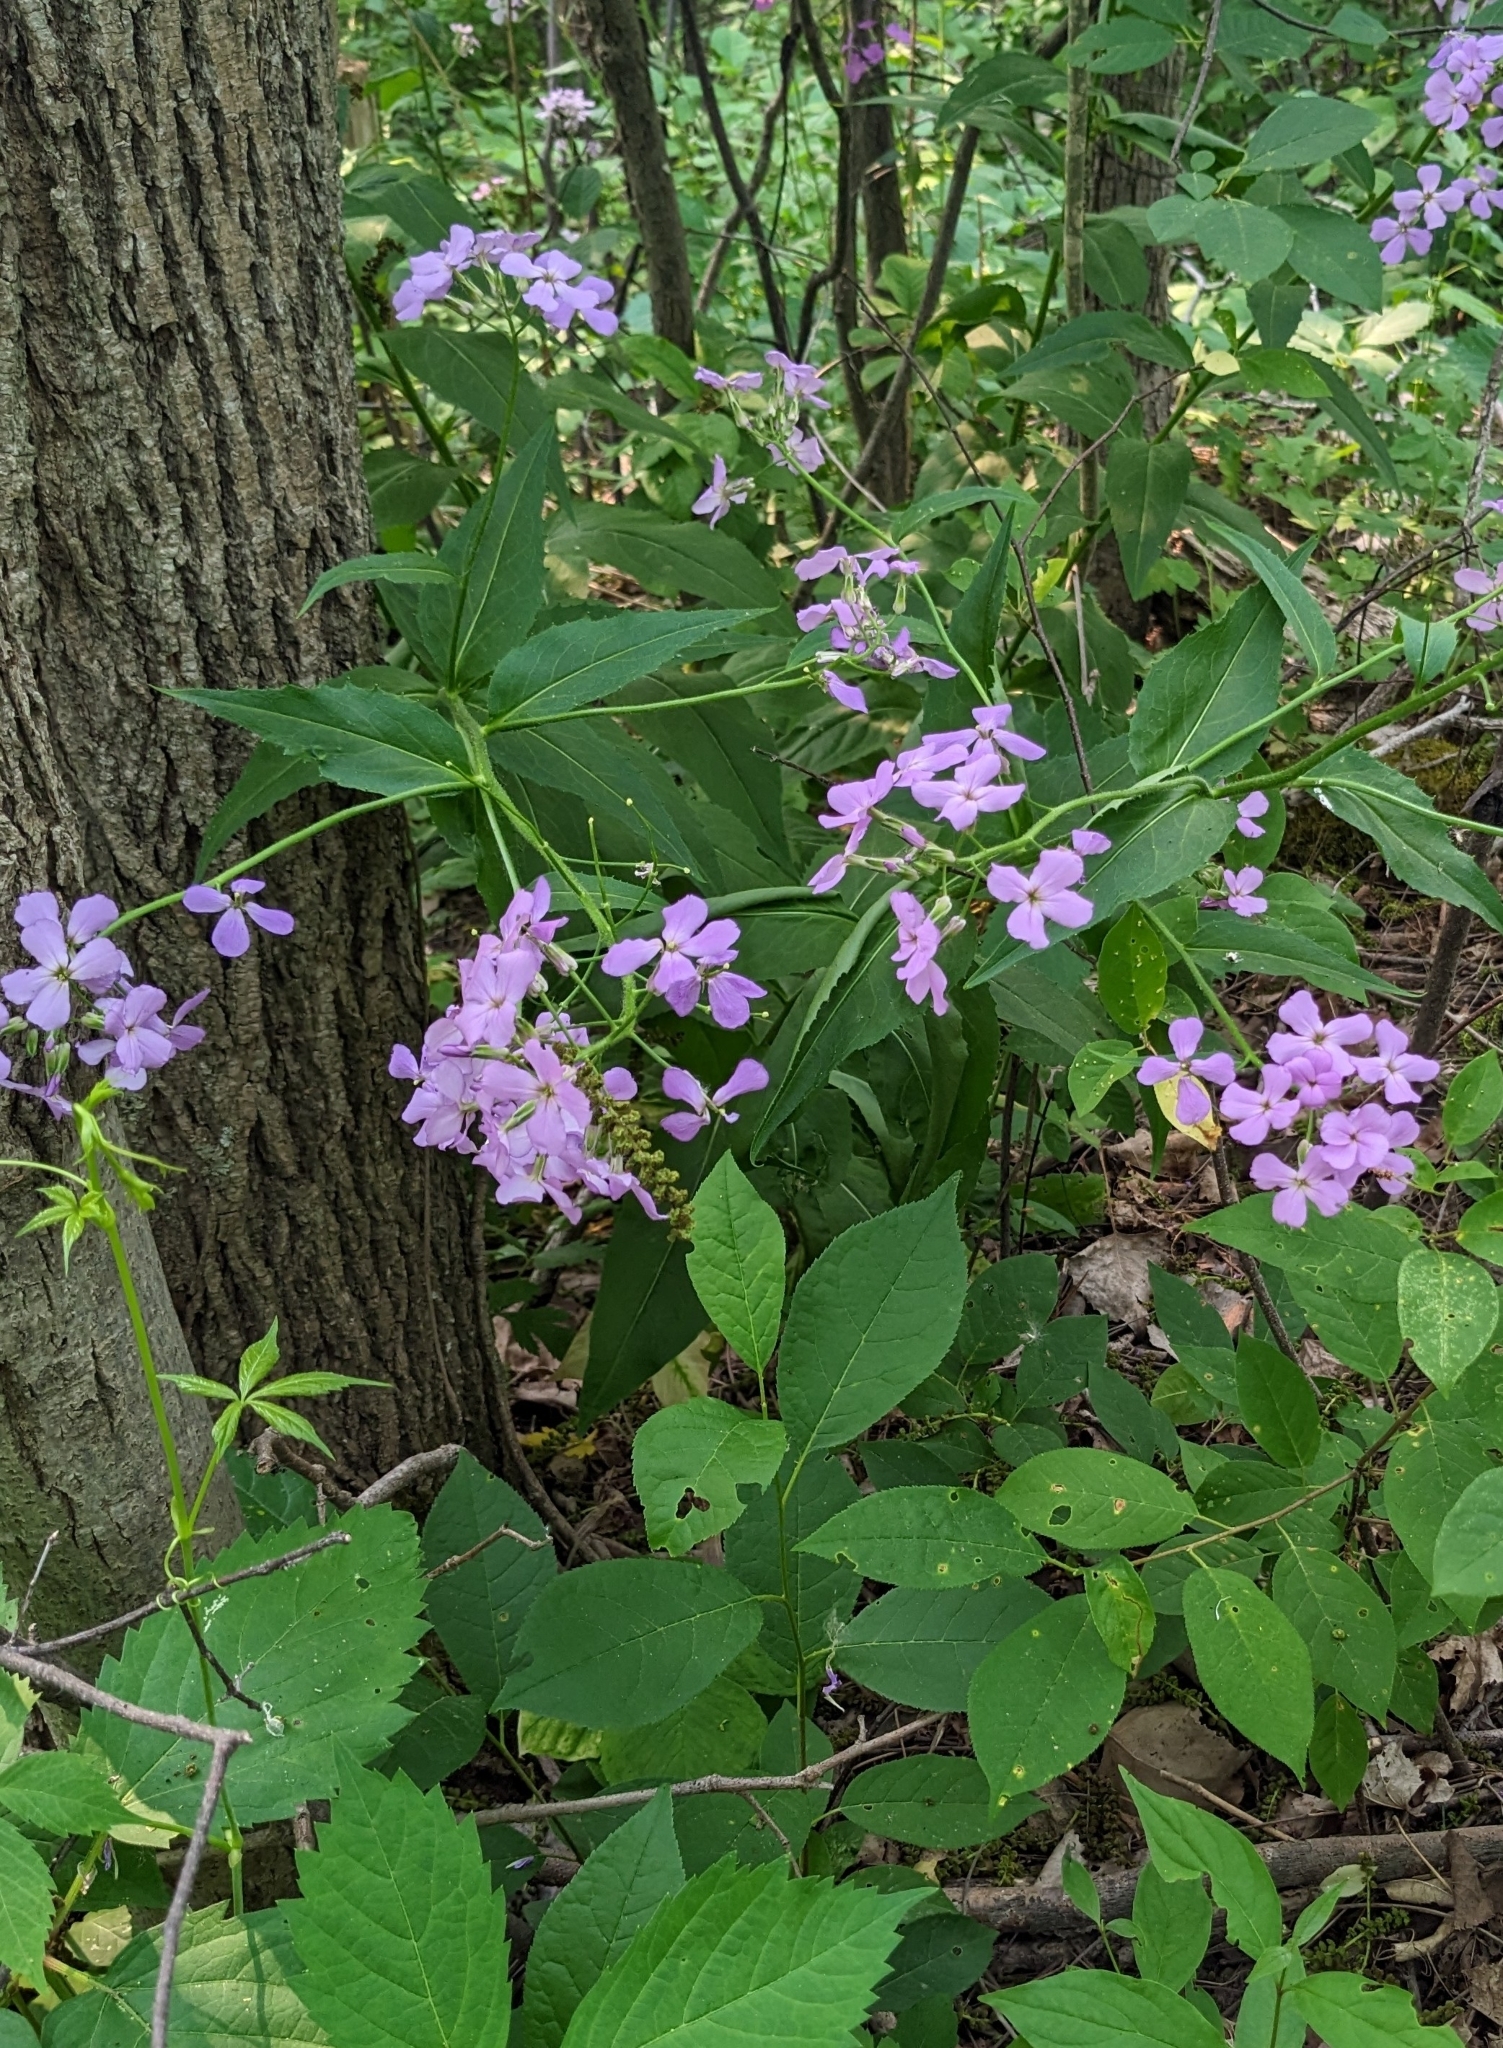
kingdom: Plantae
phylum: Tracheophyta
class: Magnoliopsida
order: Brassicales
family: Brassicaceae
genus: Hesperis
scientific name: Hesperis matronalis
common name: Dame's-violet
